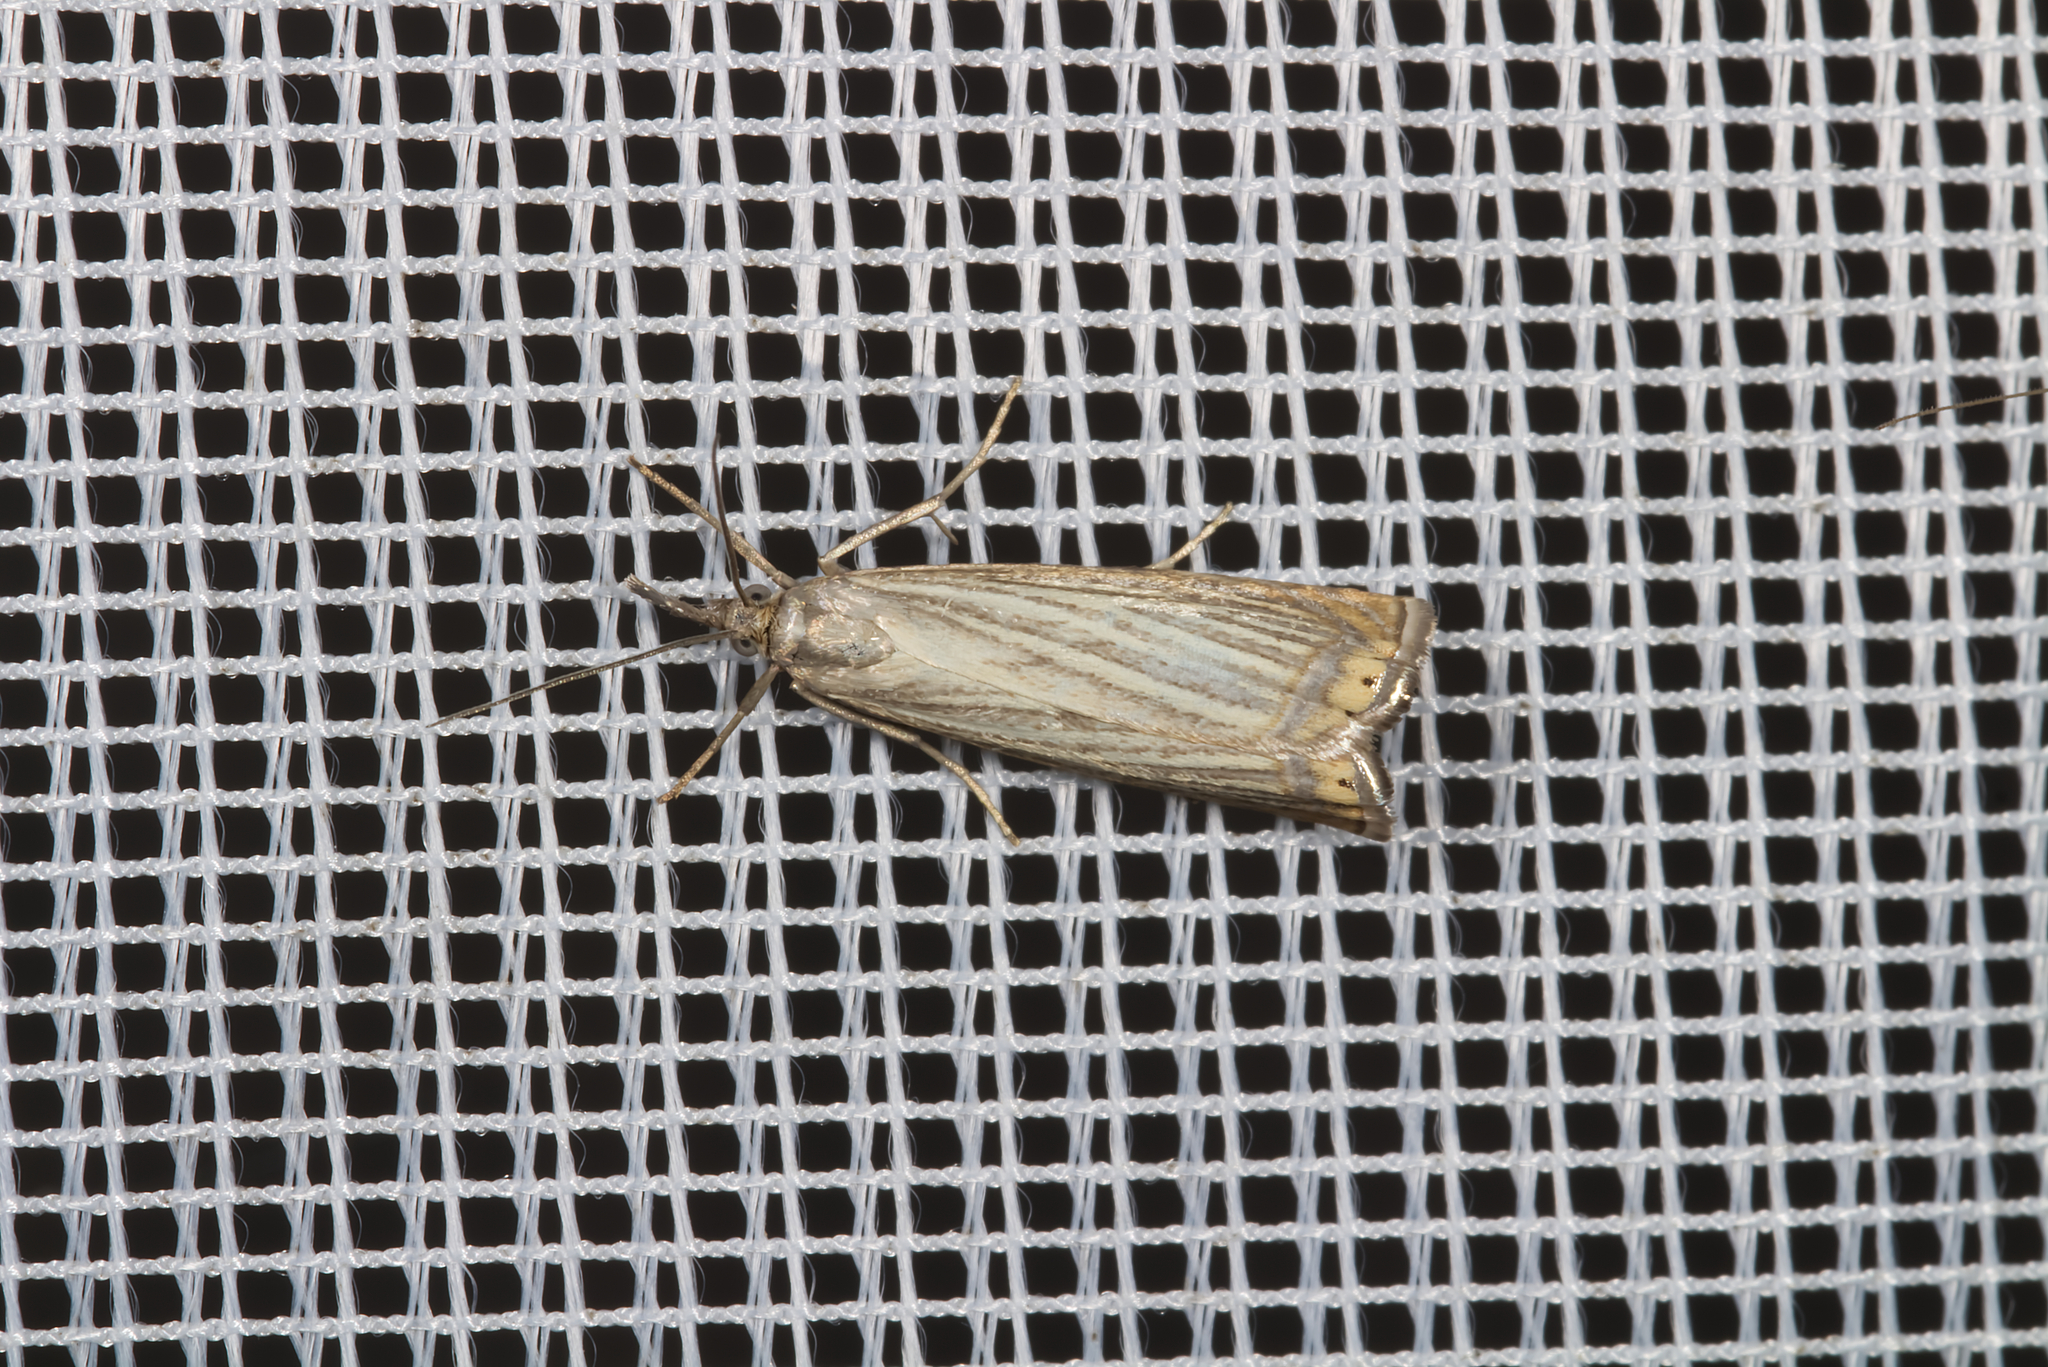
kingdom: Animalia
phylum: Arthropoda
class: Insecta
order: Lepidoptera
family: Crambidae
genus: Chrysoteuchia
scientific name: Chrysoteuchia culmella
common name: Garden grass-veneer
